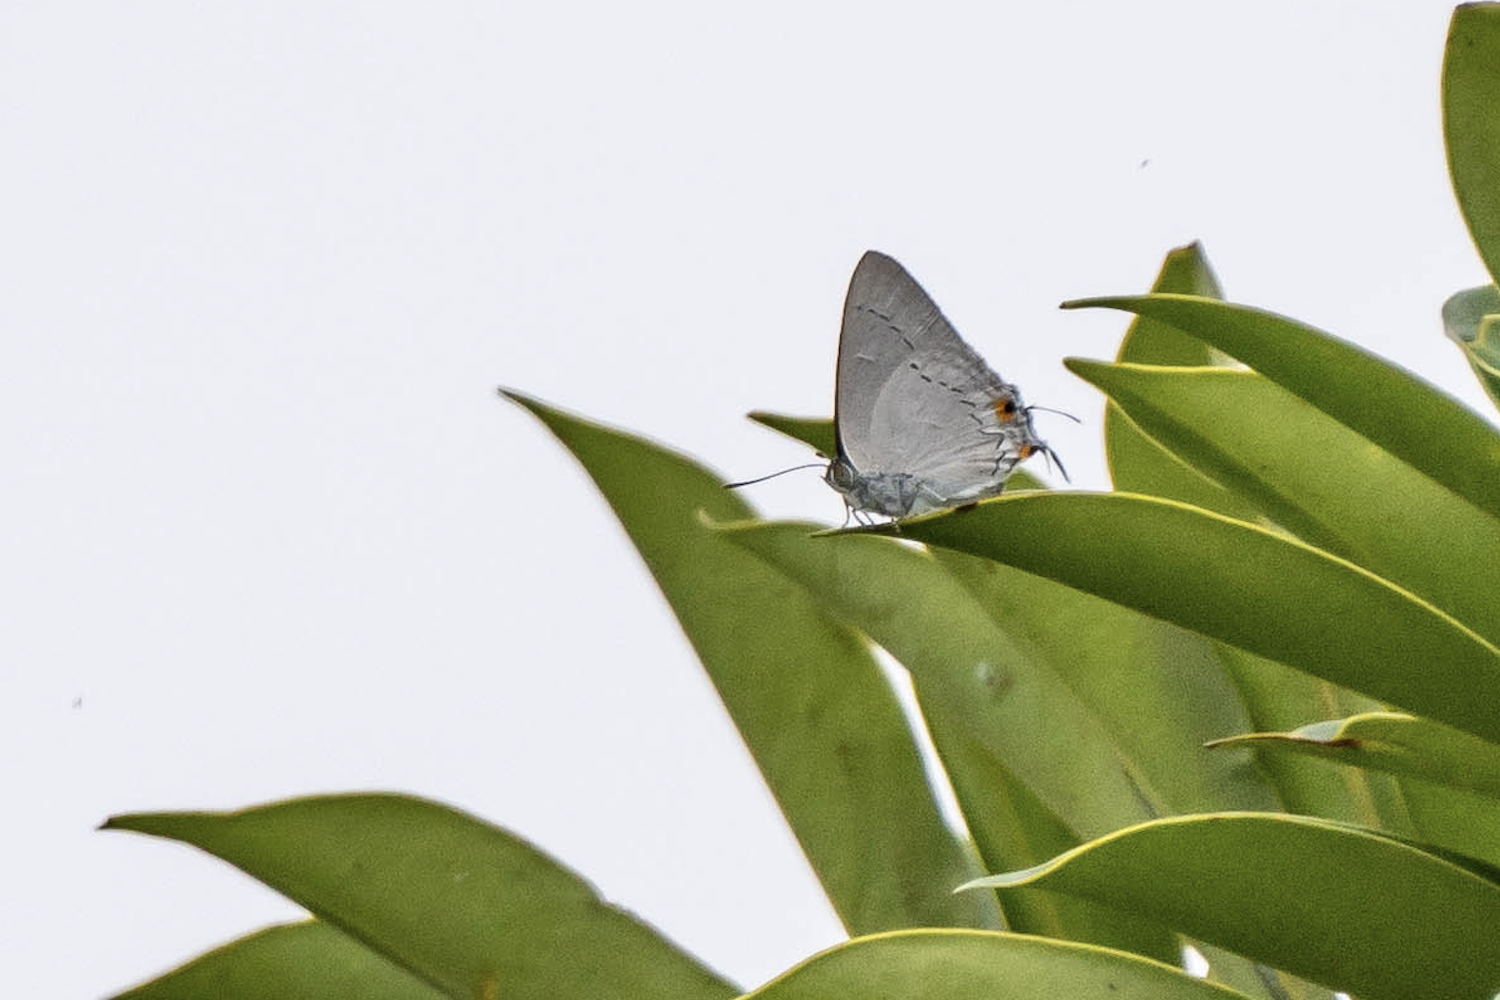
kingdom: Animalia
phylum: Arthropoda
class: Insecta
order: Lepidoptera
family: Lycaenidae
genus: Pratapa
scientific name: Pratapa deva
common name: White royal
